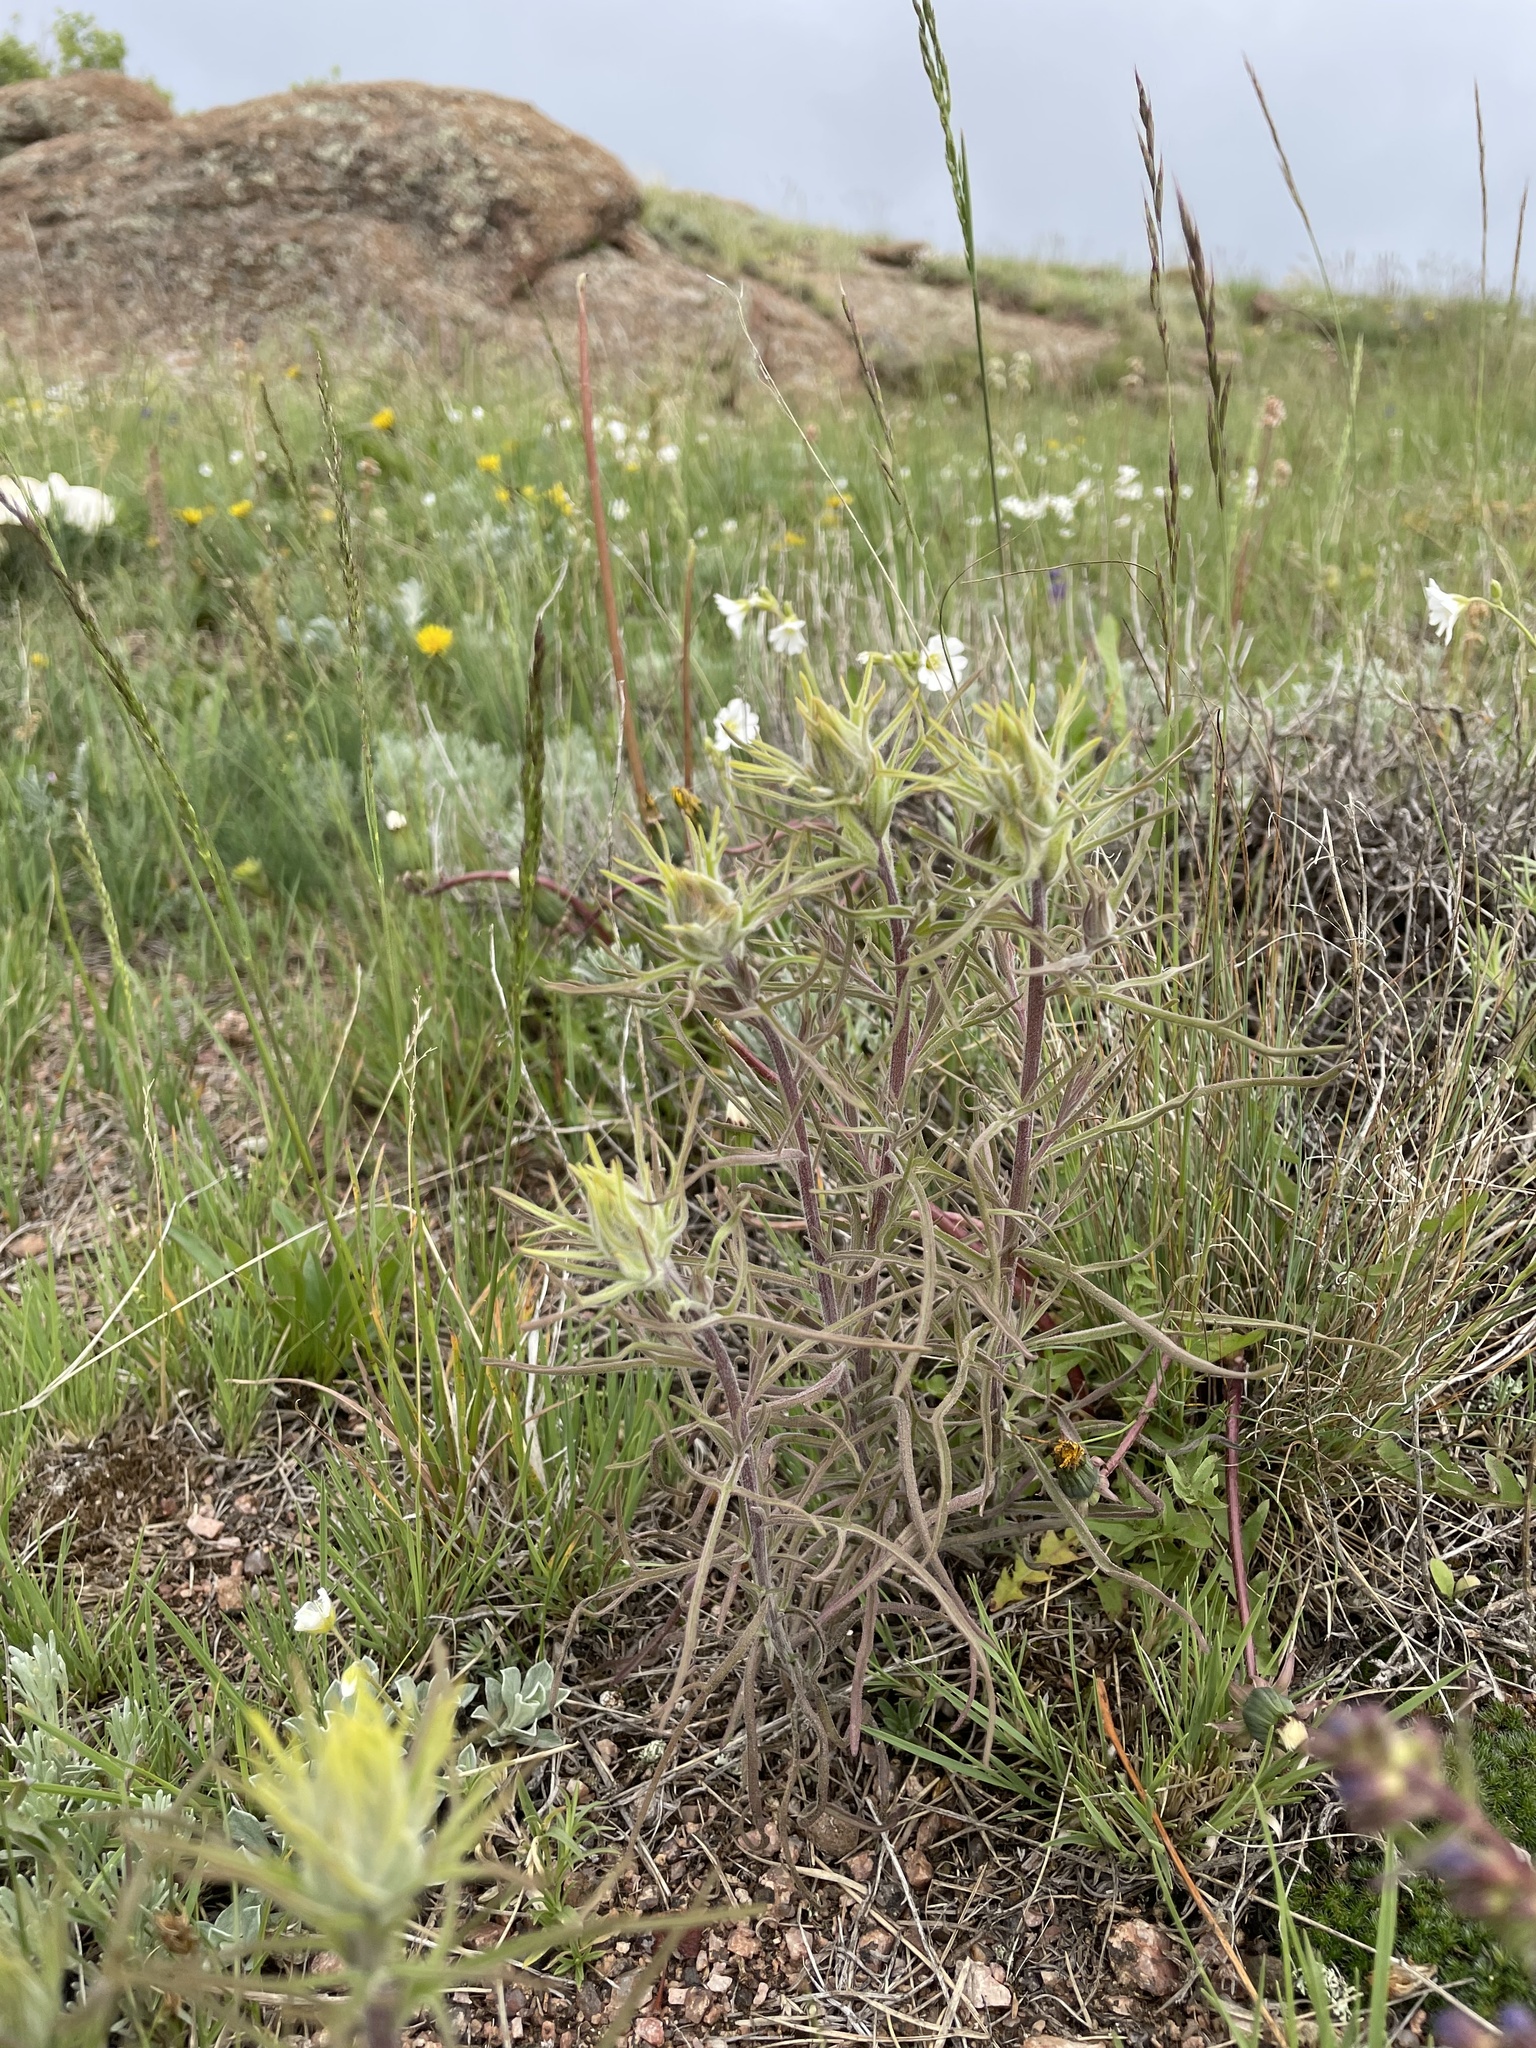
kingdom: Plantae
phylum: Tracheophyta
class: Magnoliopsida
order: Lamiales
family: Orobanchaceae
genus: Castilleja
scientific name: Castilleja flava
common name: Yellow paintbrush
